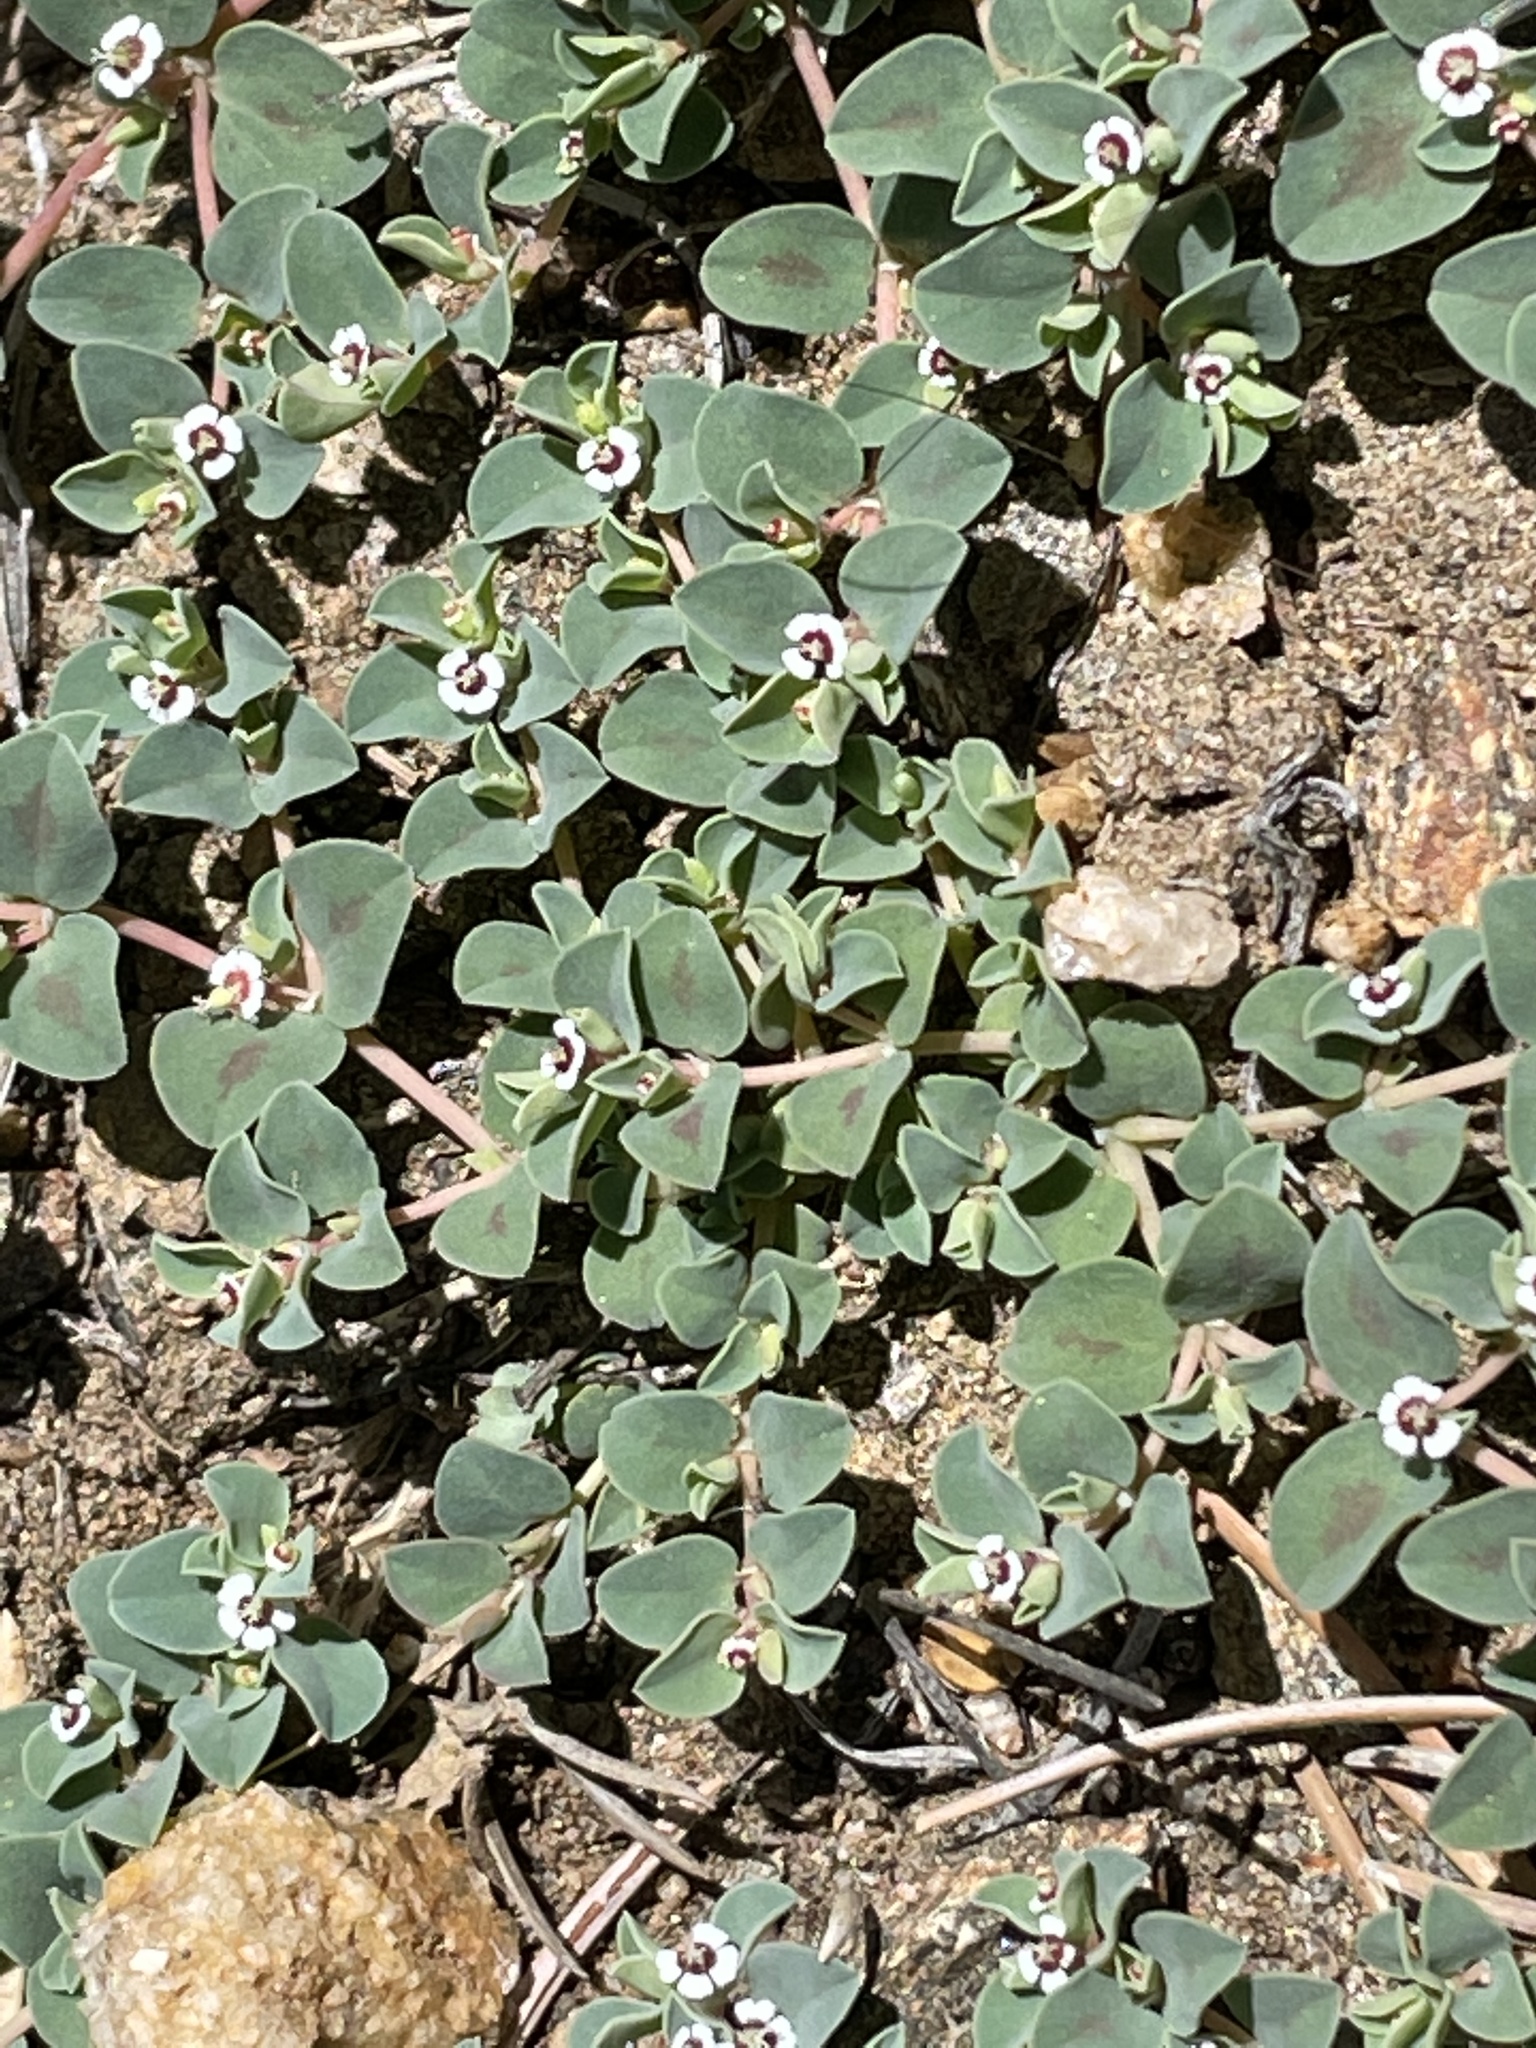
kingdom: Plantae
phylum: Tracheophyta
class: Magnoliopsida
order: Malpighiales
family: Euphorbiaceae
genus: Euphorbia
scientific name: Euphorbia albomarginata
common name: Whitemargin sandmat
